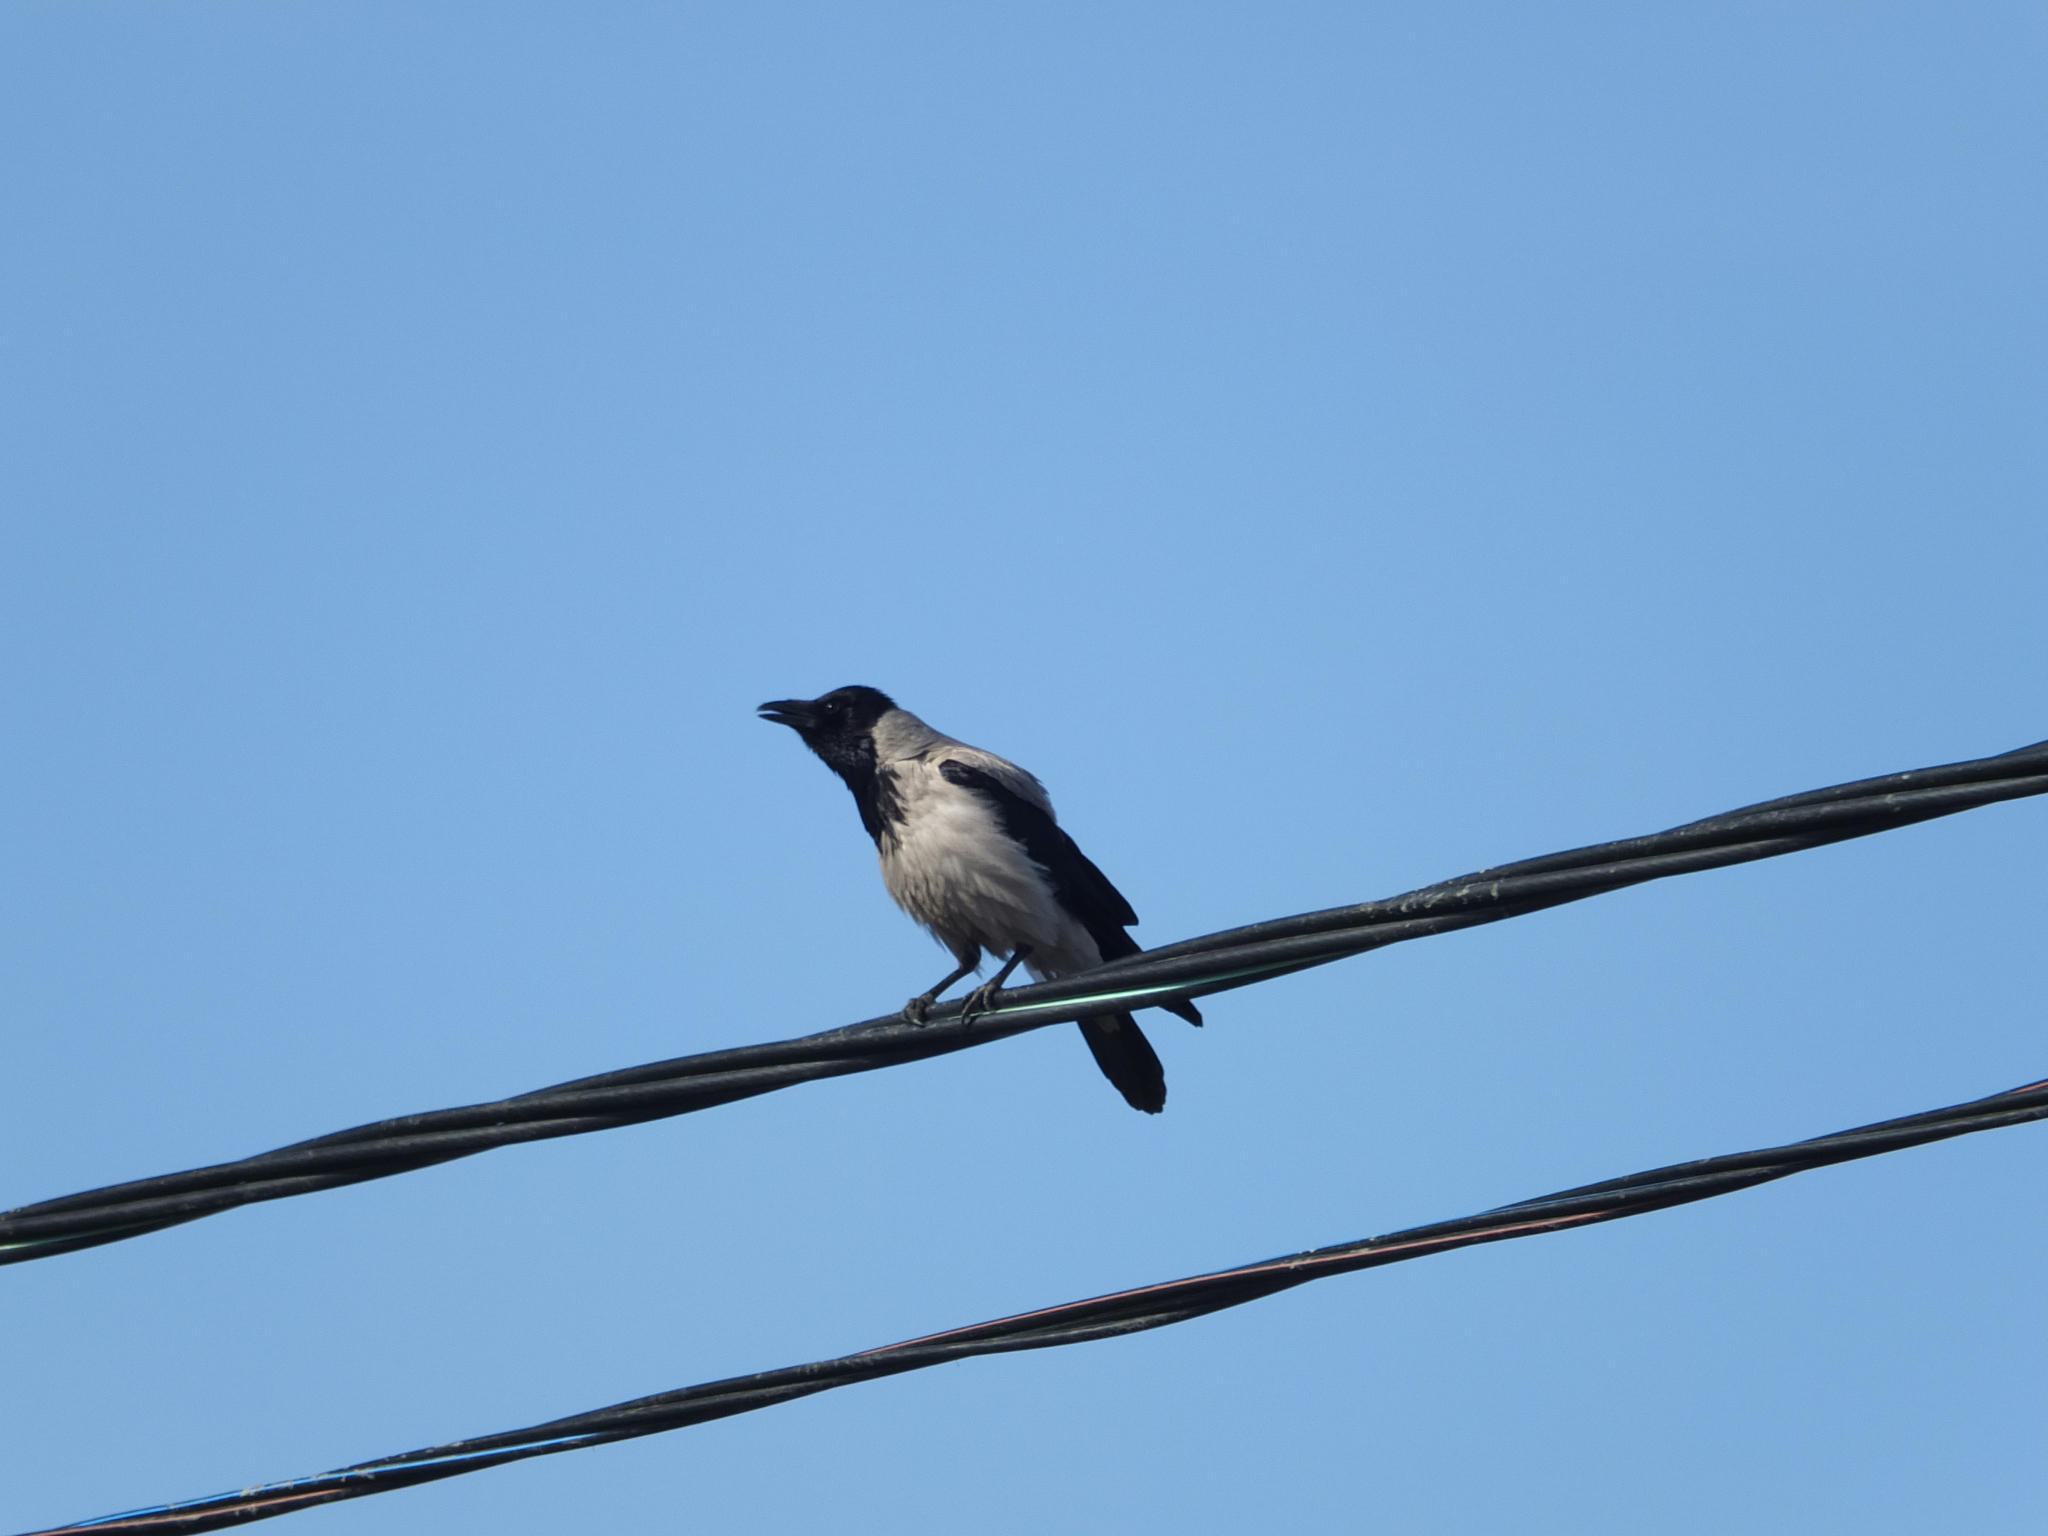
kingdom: Animalia
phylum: Chordata
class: Aves
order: Passeriformes
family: Corvidae
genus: Corvus
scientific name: Corvus cornix
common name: Hooded crow
